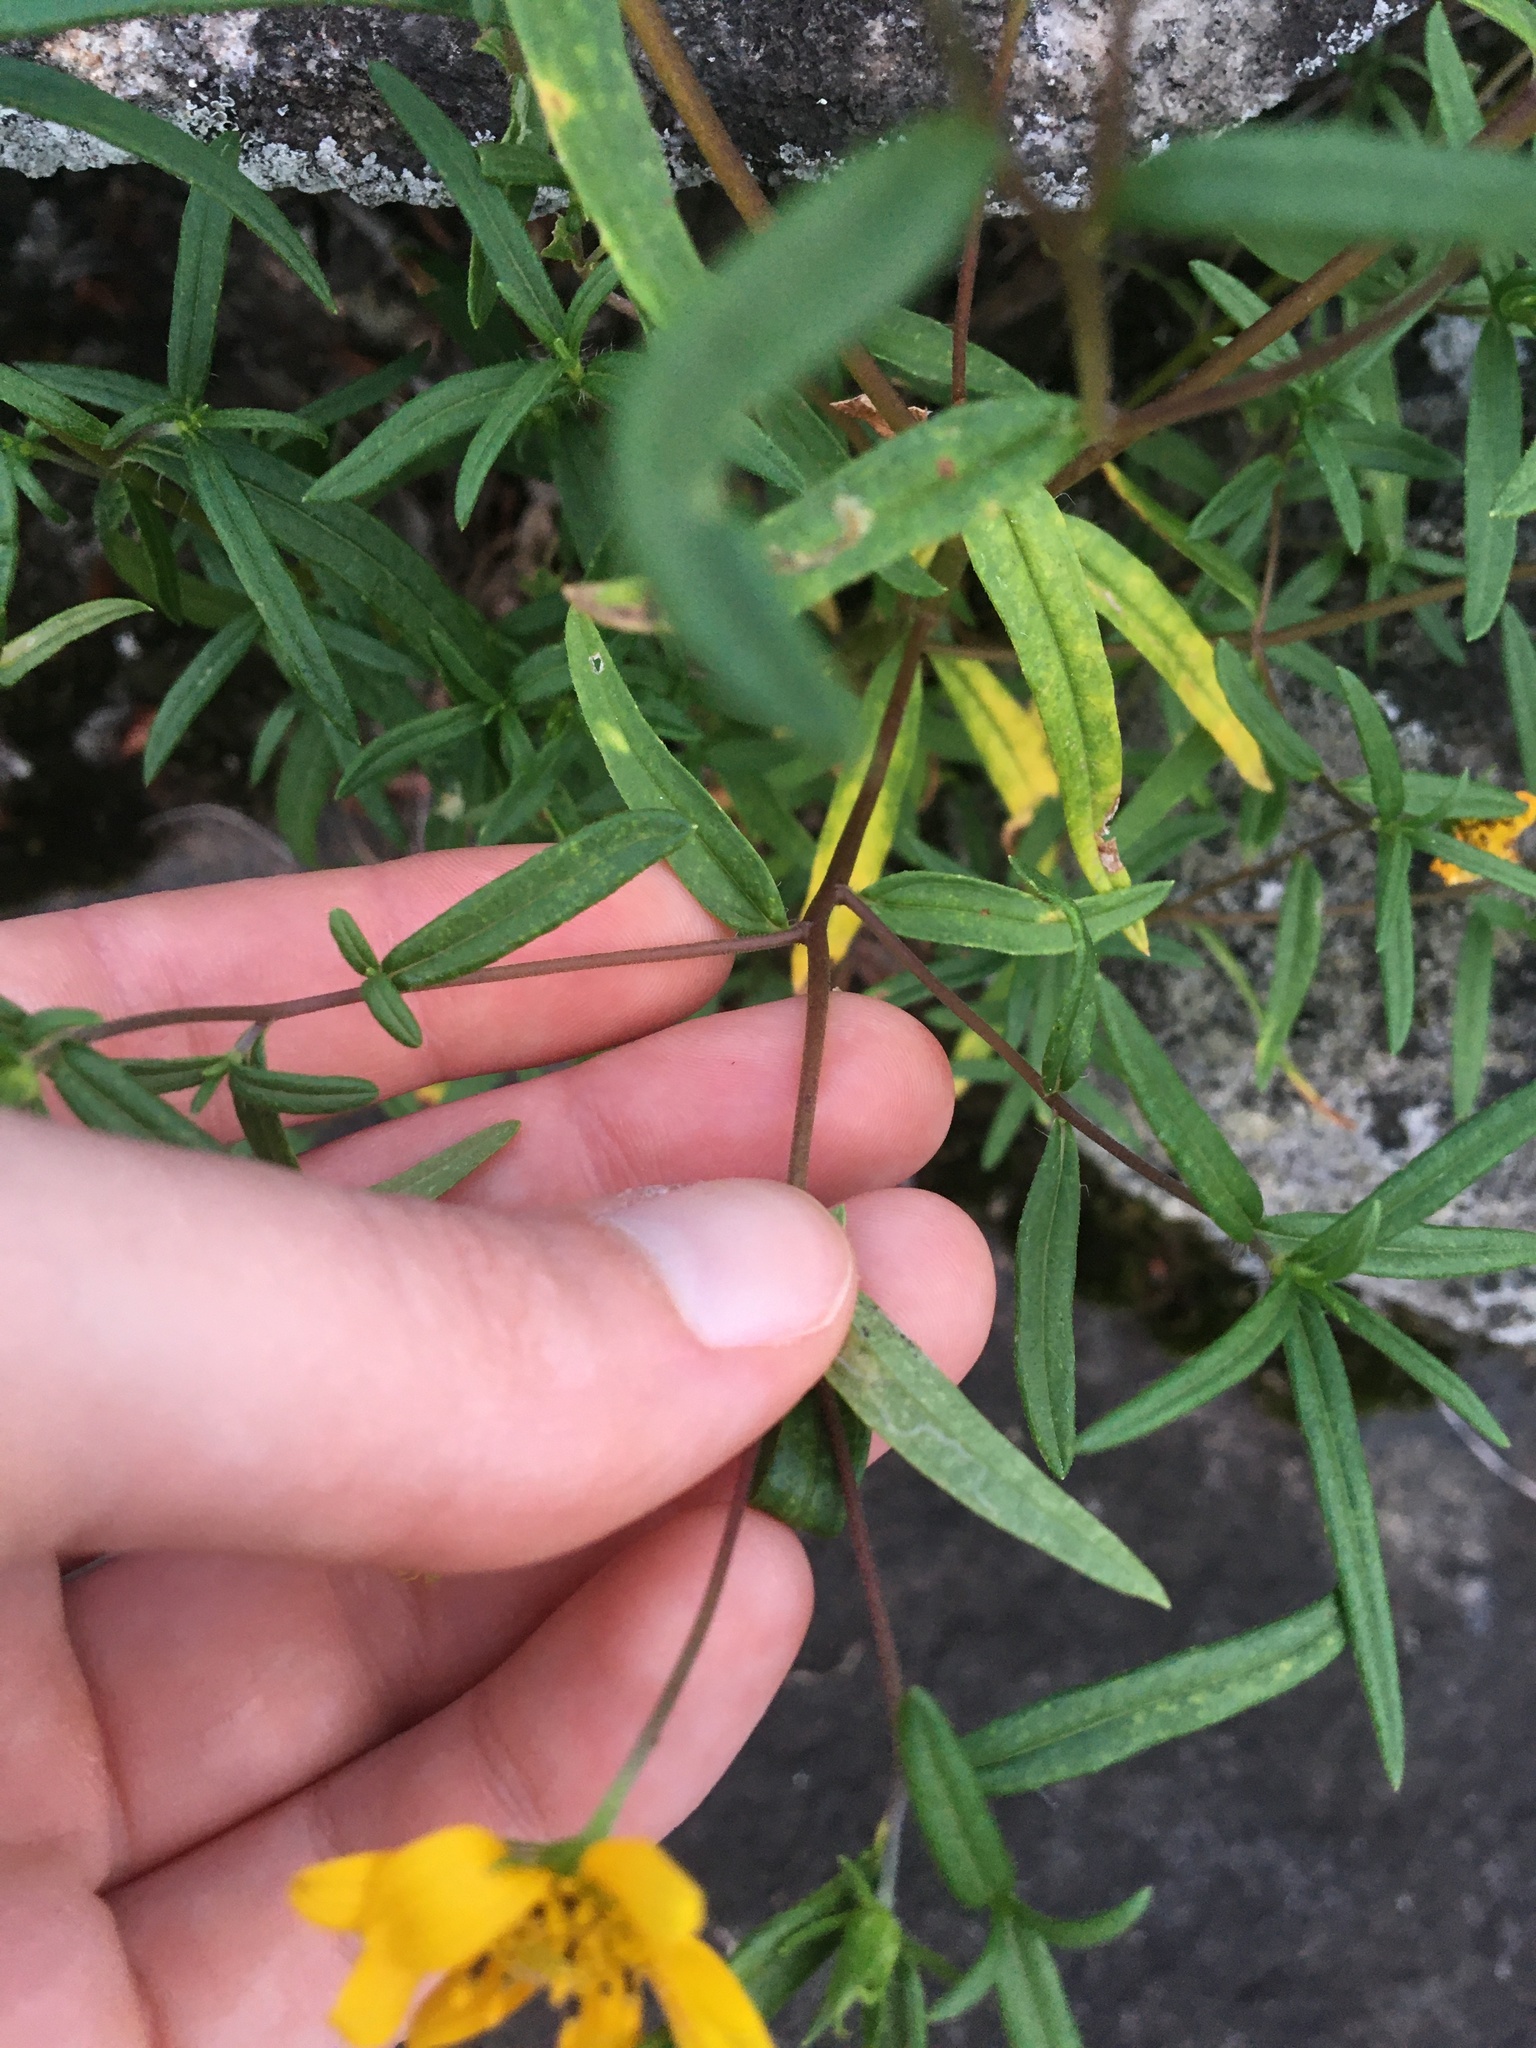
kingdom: Plantae
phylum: Tracheophyta
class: Magnoliopsida
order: Asterales
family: Asteraceae
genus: Helianthus
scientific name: Helianthus porteri
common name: Porter's sunflower
